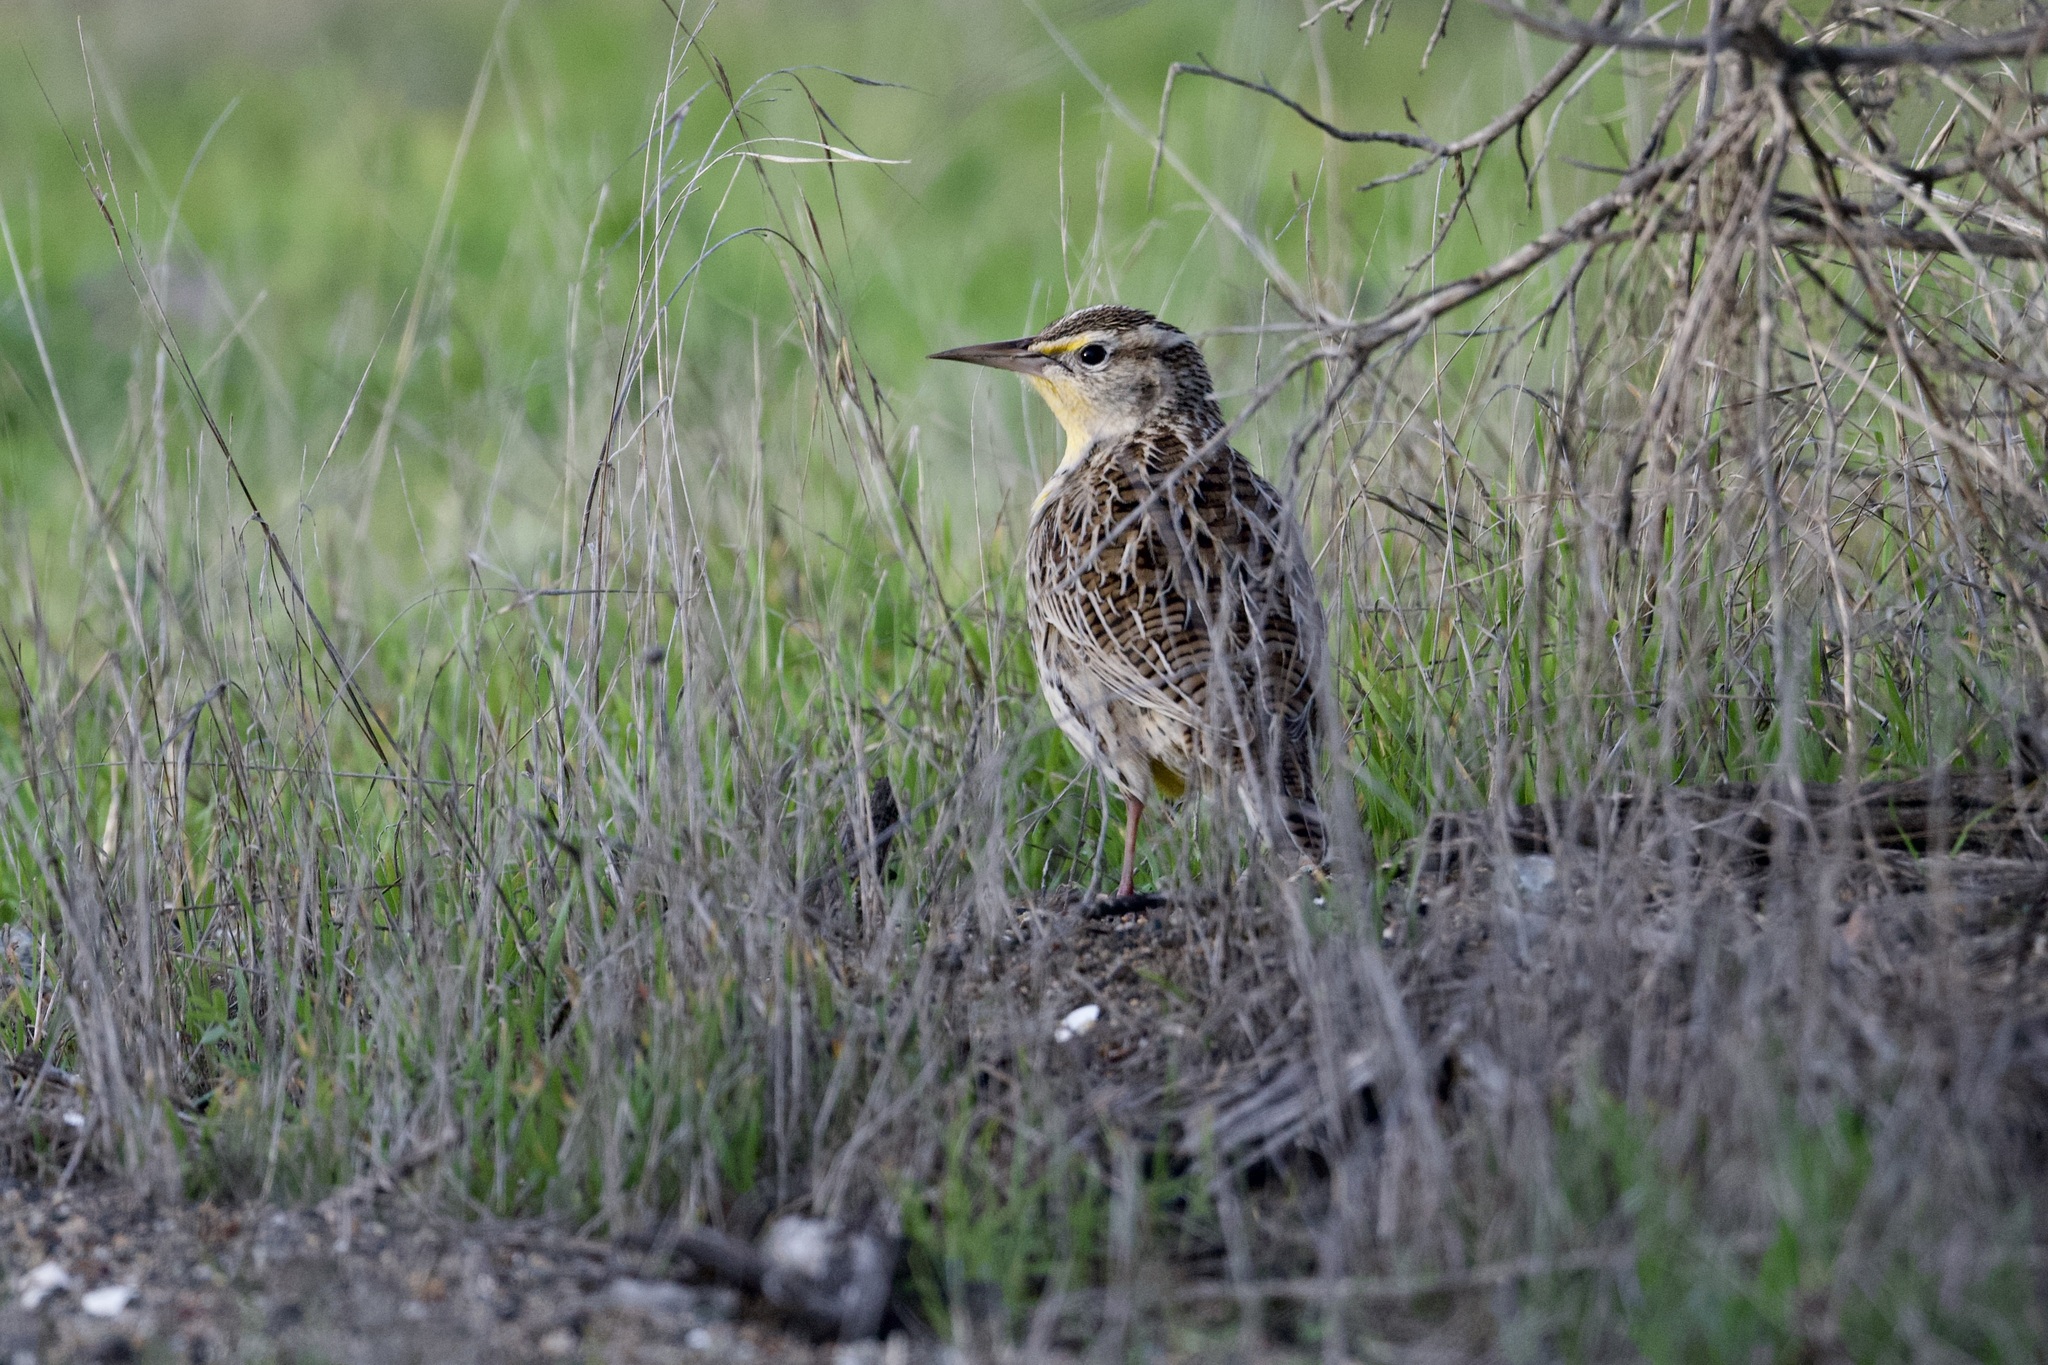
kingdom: Animalia
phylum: Chordata
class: Aves
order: Passeriformes
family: Icteridae
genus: Sturnella
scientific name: Sturnella neglecta
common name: Western meadowlark
